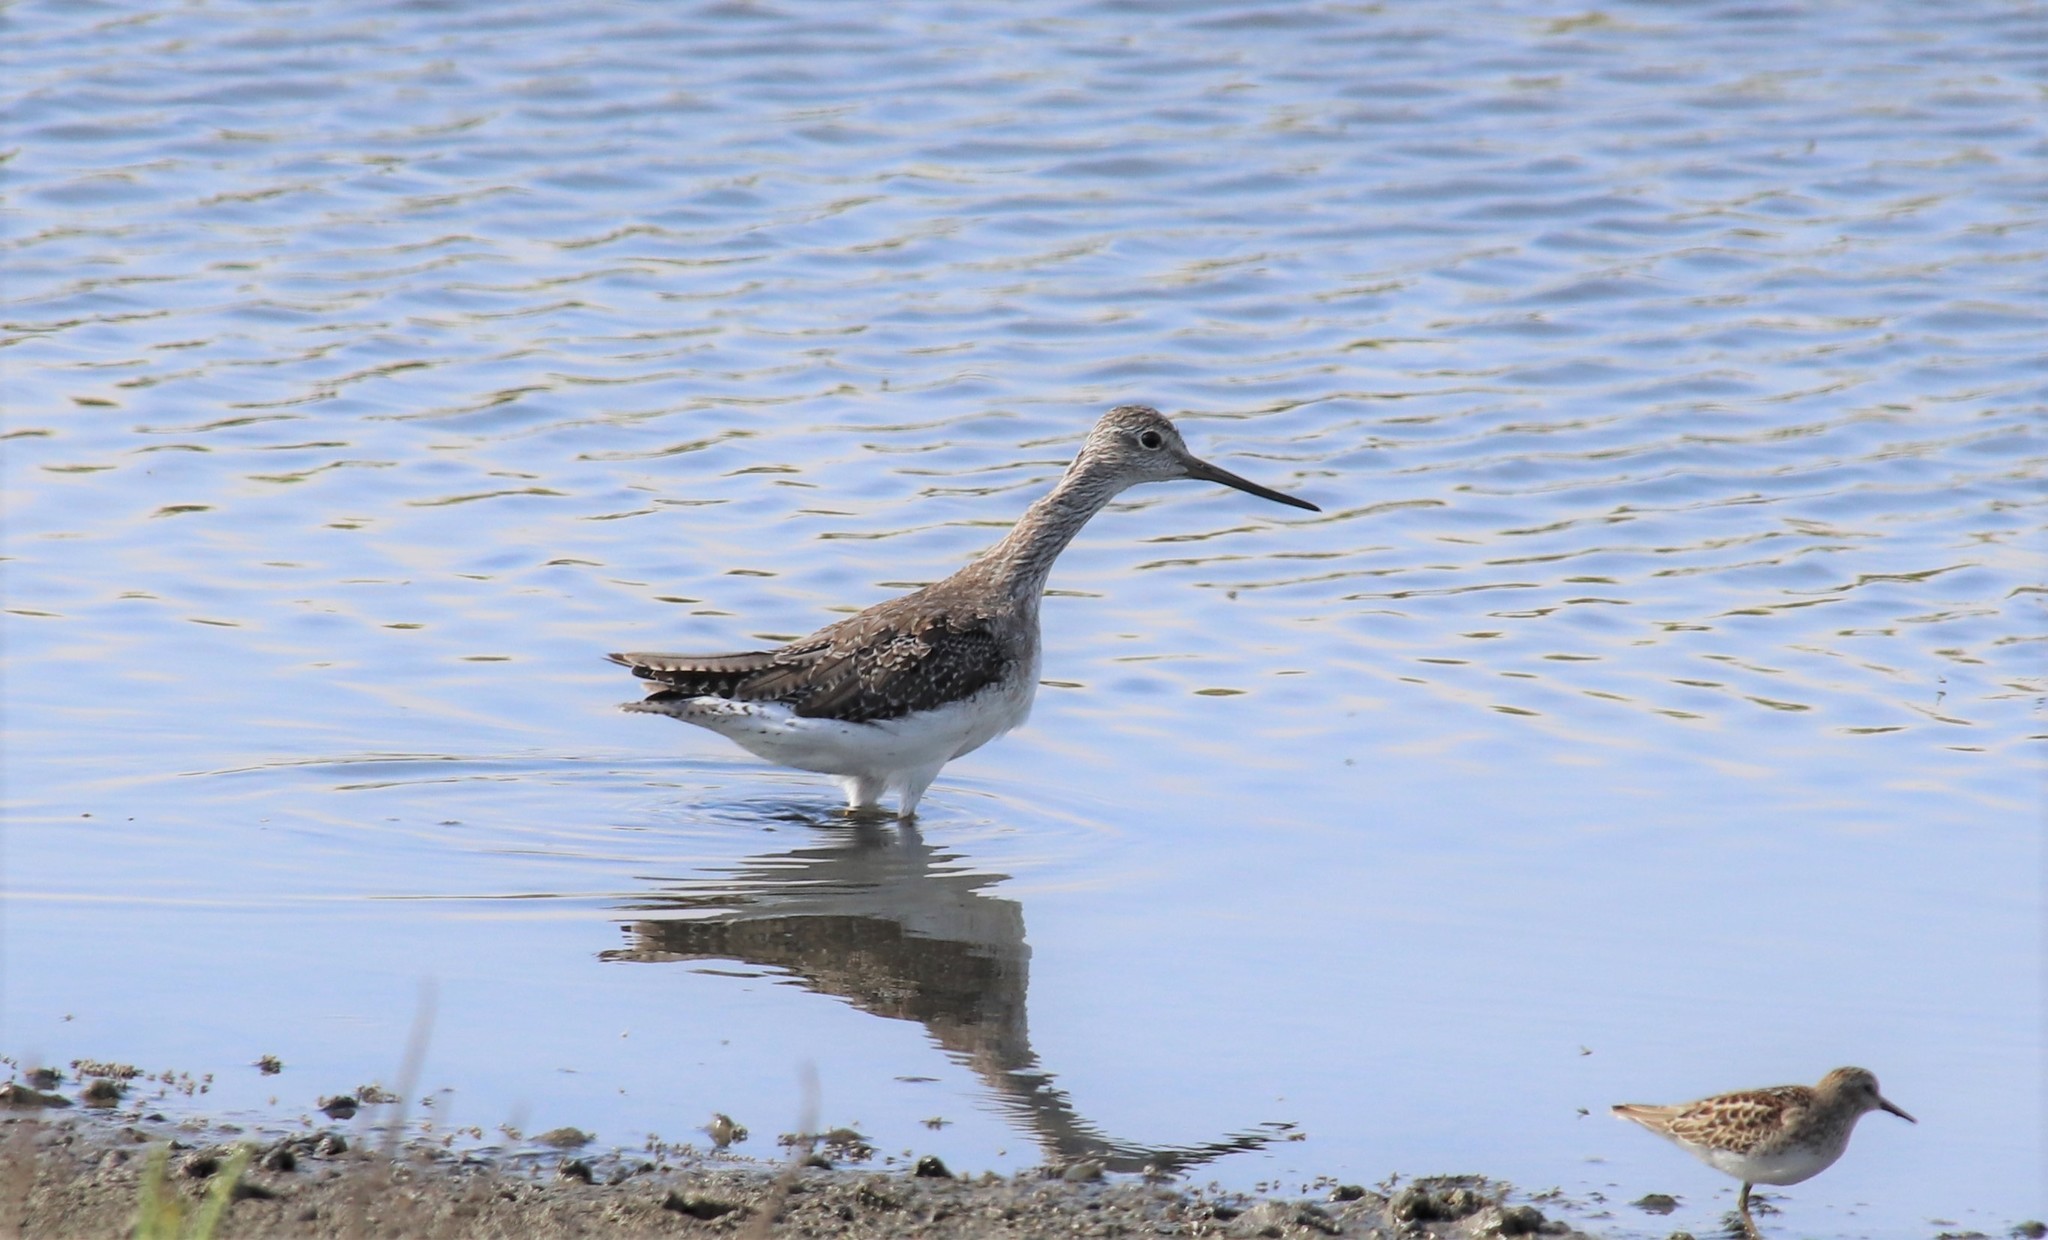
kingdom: Animalia
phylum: Chordata
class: Aves
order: Charadriiformes
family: Scolopacidae
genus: Tringa
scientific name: Tringa melanoleuca
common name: Greater yellowlegs
